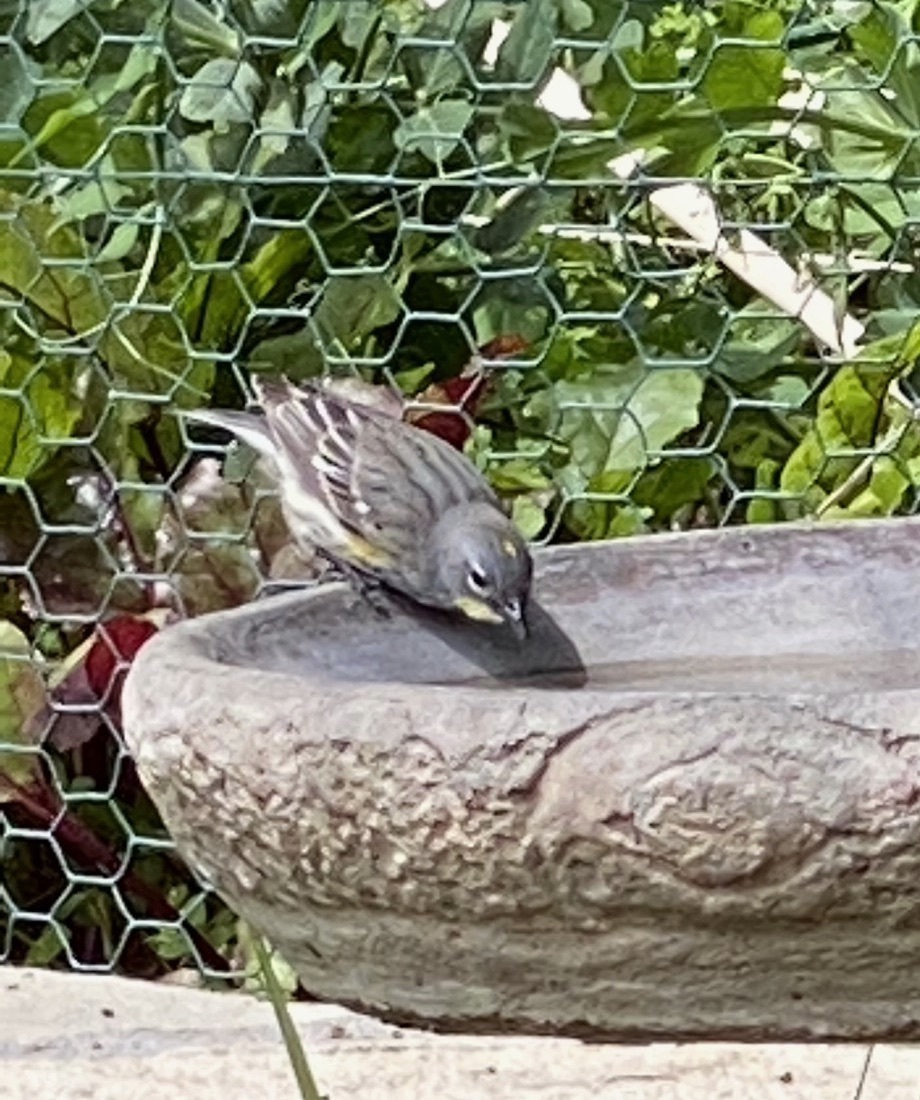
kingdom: Animalia
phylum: Chordata
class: Aves
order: Passeriformes
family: Parulidae
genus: Setophaga
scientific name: Setophaga coronata
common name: Myrtle warbler
